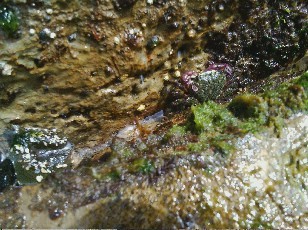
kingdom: Animalia
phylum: Arthropoda
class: Malacostraca
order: Decapoda
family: Grapsidae
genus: Pachygrapsus
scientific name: Pachygrapsus crassipes
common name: Striped shore crab
